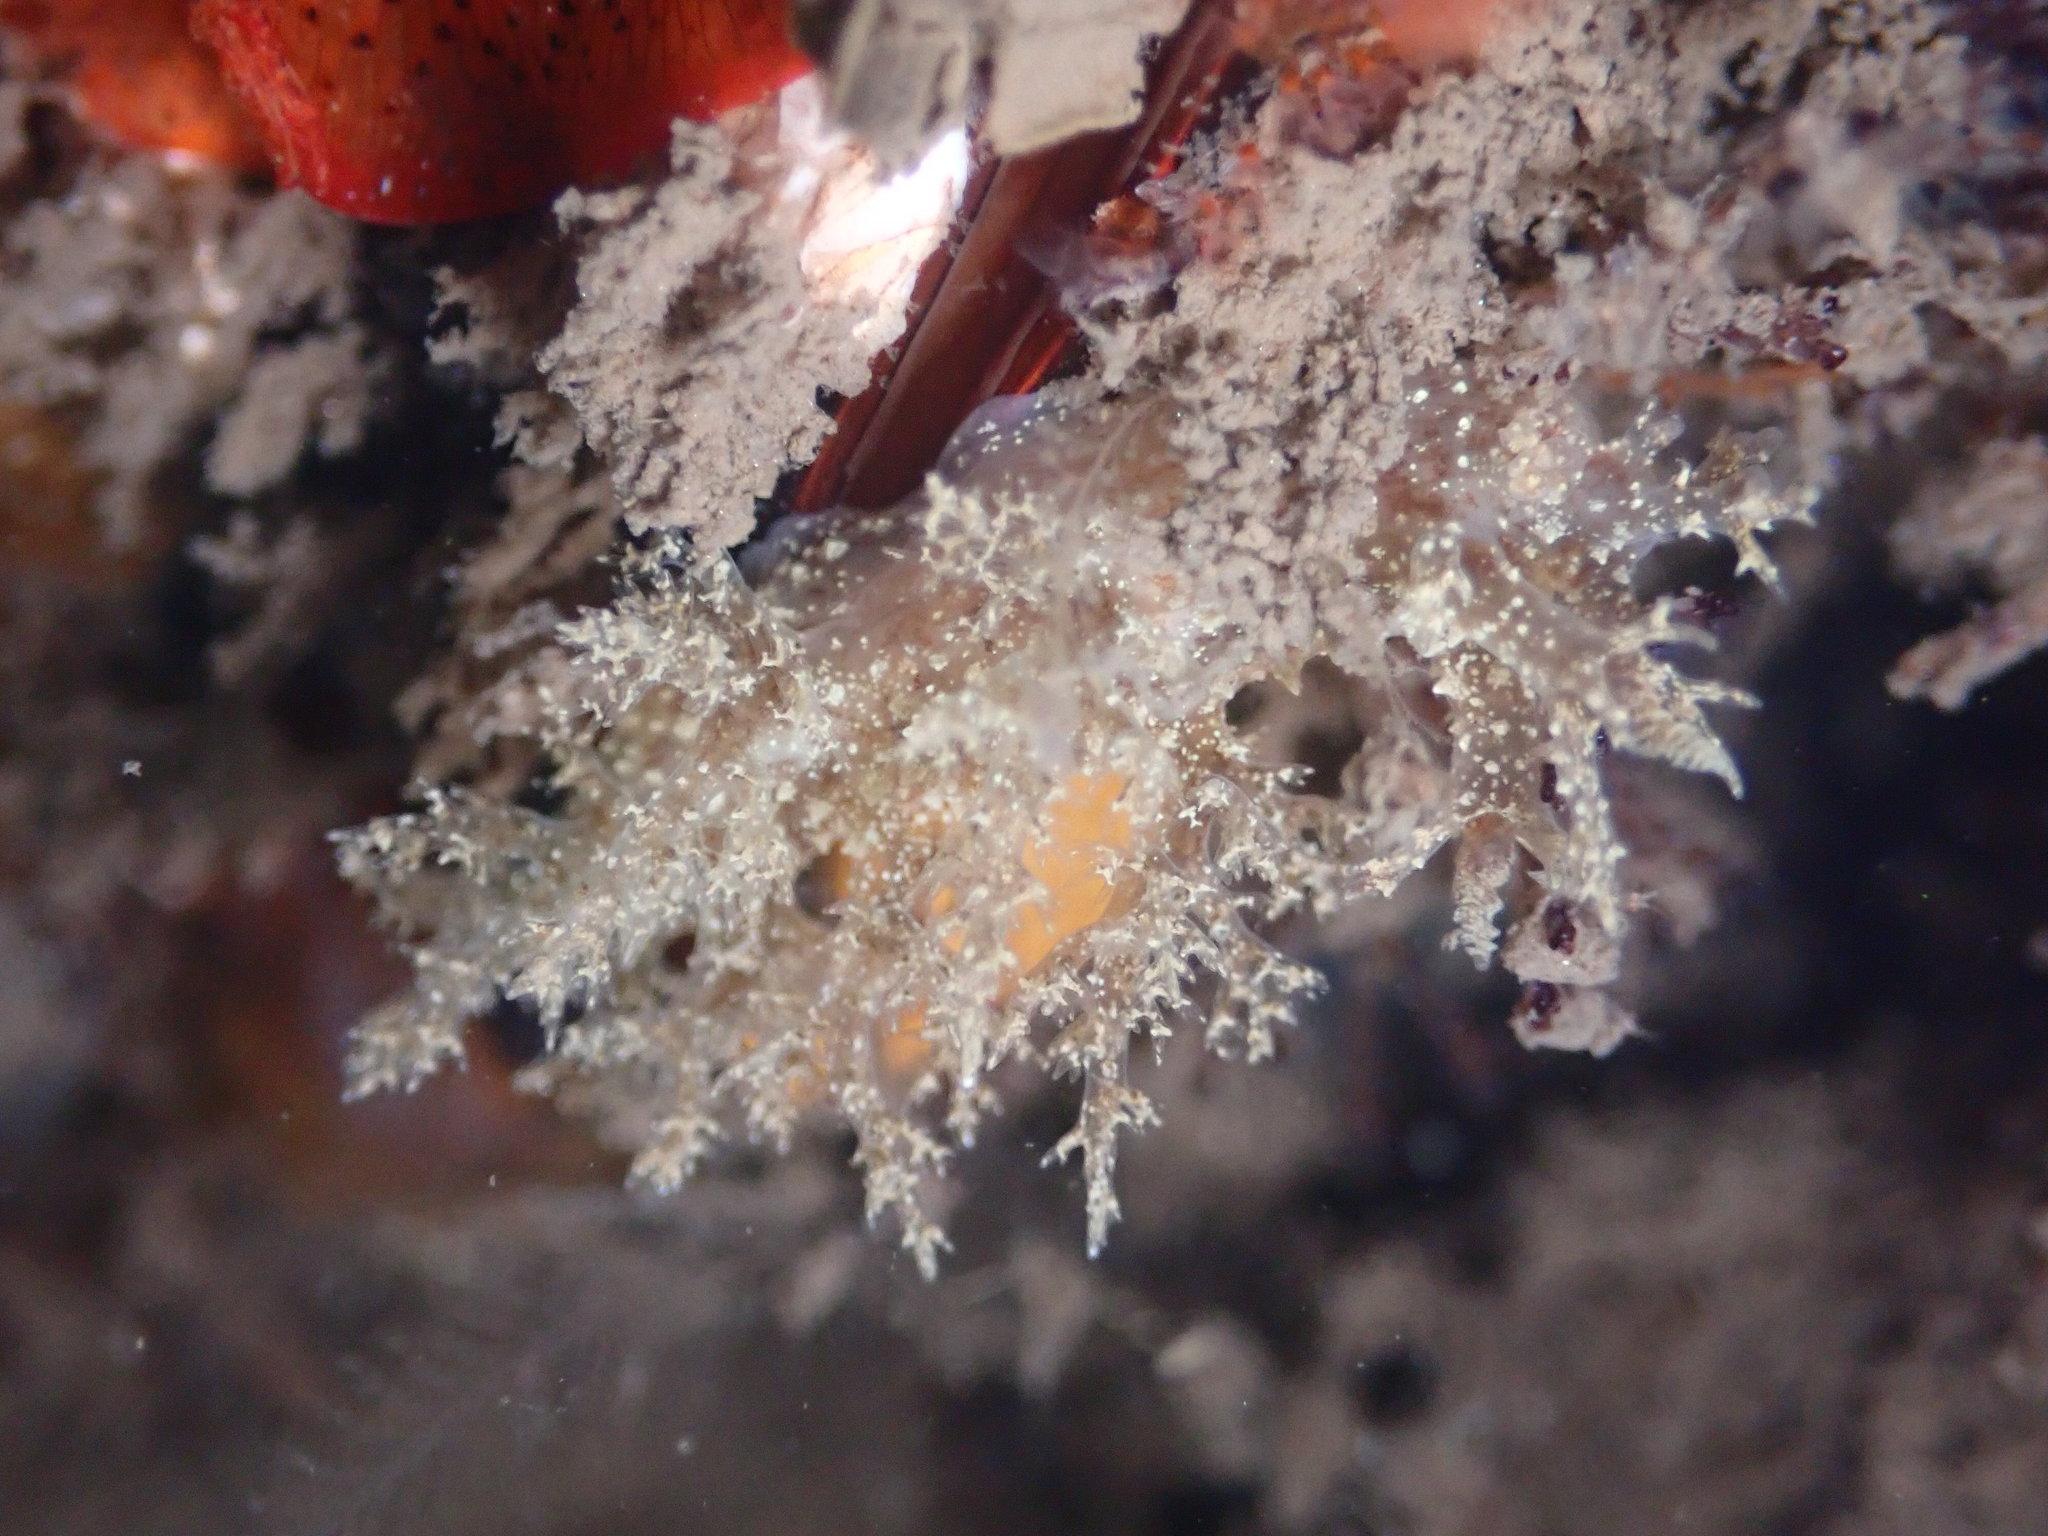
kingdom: Animalia
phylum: Mollusca
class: Gastropoda
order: Nudibranchia
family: Dendronotidae
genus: Dendronotus
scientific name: Dendronotus venustus
